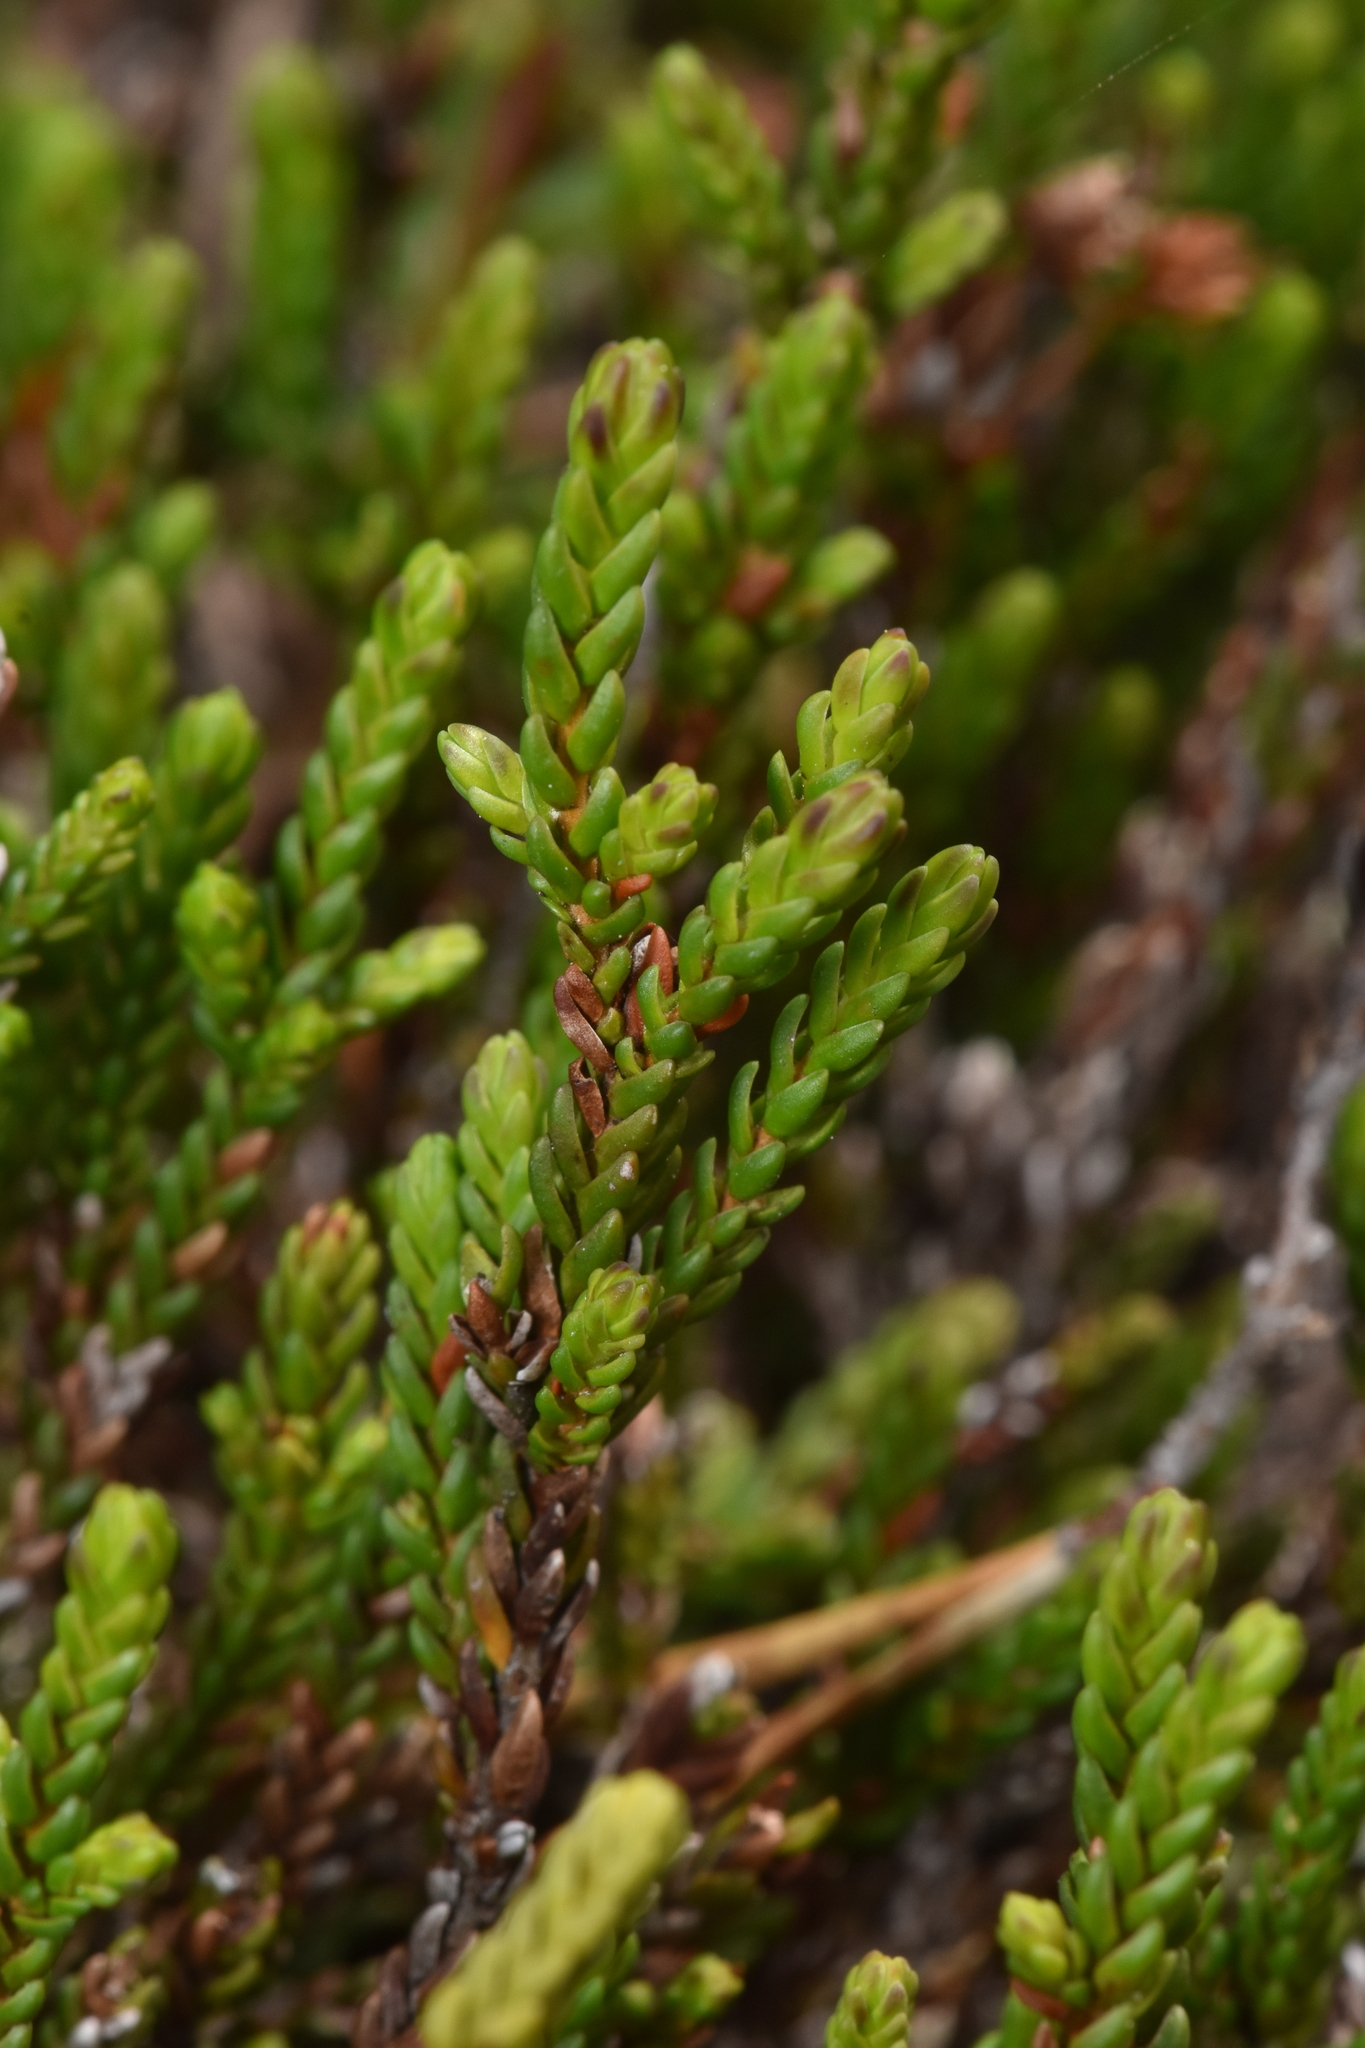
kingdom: Plantae
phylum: Tracheophyta
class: Magnoliopsida
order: Ericales
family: Ericaceae
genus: Cassiope
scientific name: Cassiope mertensiana
